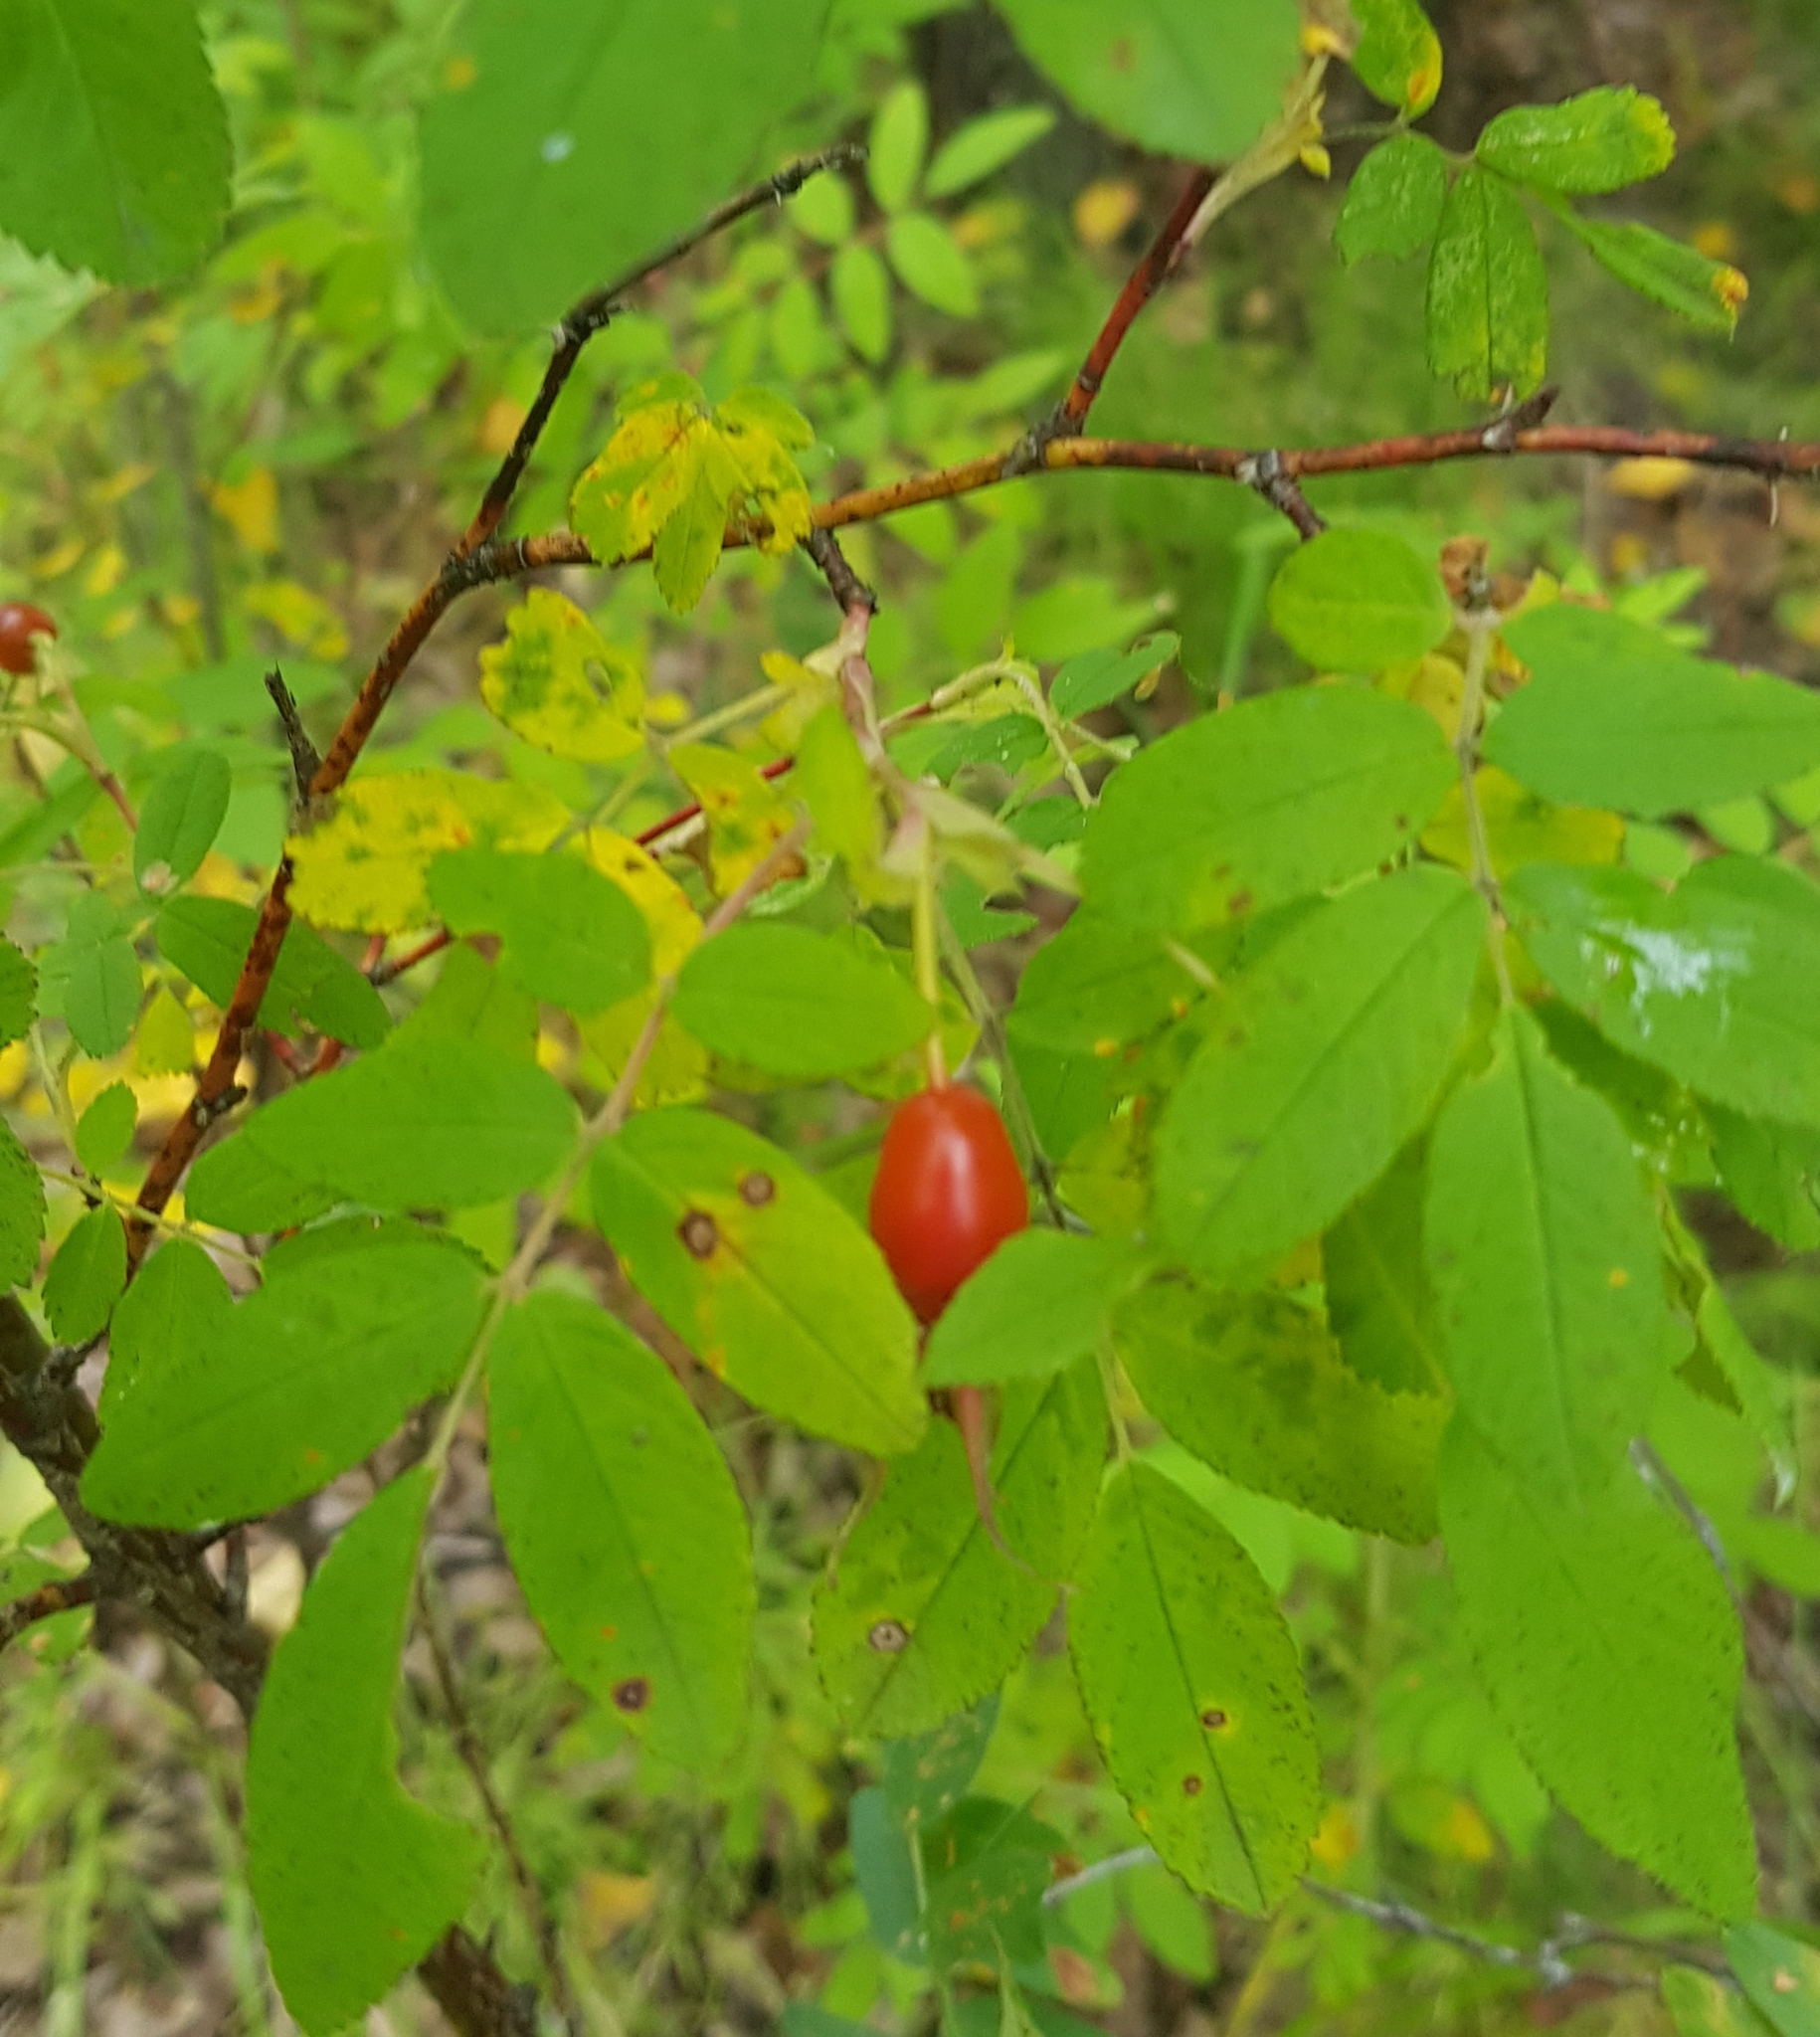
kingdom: Plantae
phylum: Tracheophyta
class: Magnoliopsida
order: Rosales
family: Rosaceae
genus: Rosa
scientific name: Rosa davurica
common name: Amur rose
